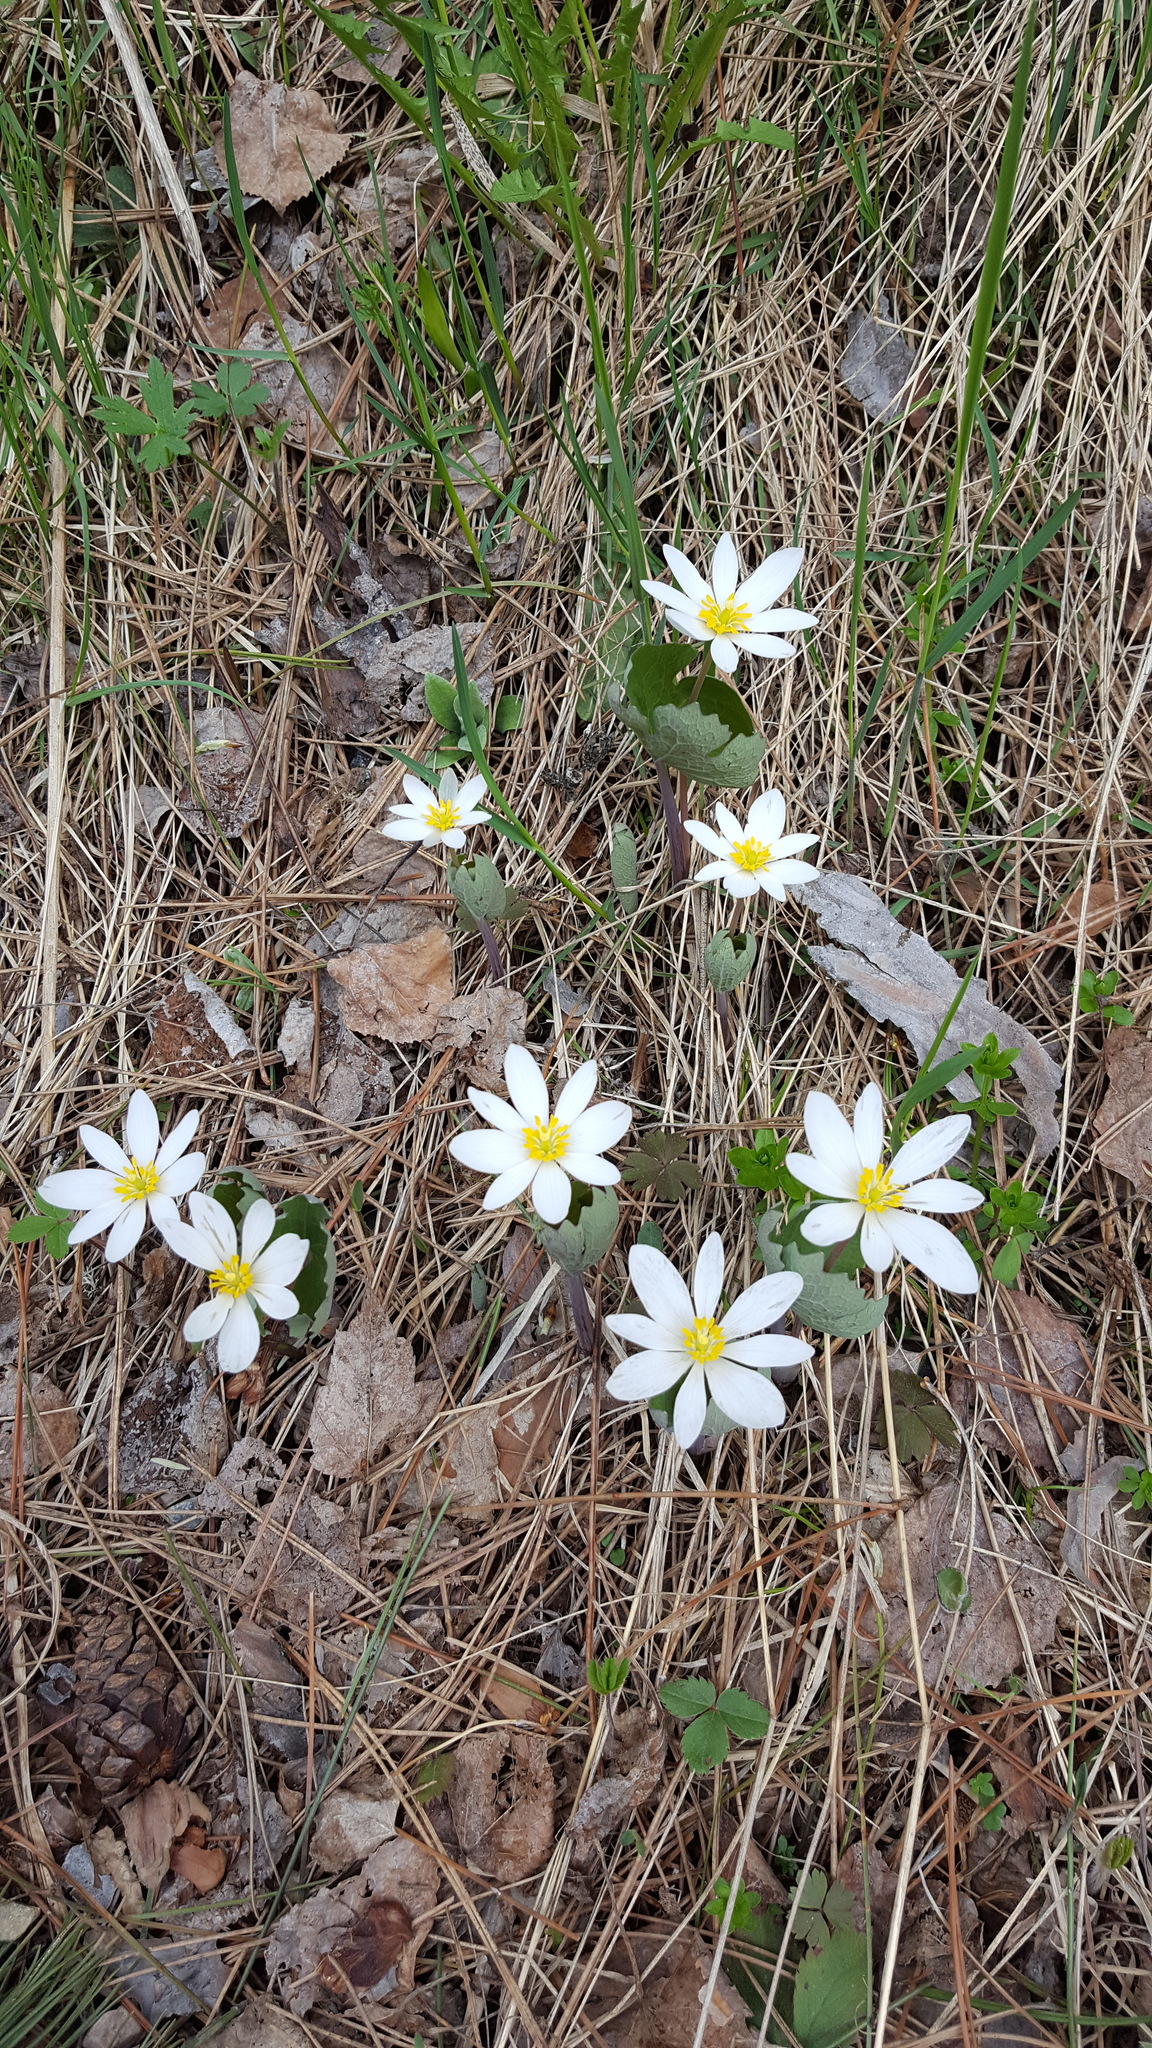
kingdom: Plantae
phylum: Tracheophyta
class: Magnoliopsida
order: Ranunculales
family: Papaveraceae
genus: Sanguinaria
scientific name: Sanguinaria canadensis
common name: Bloodroot
